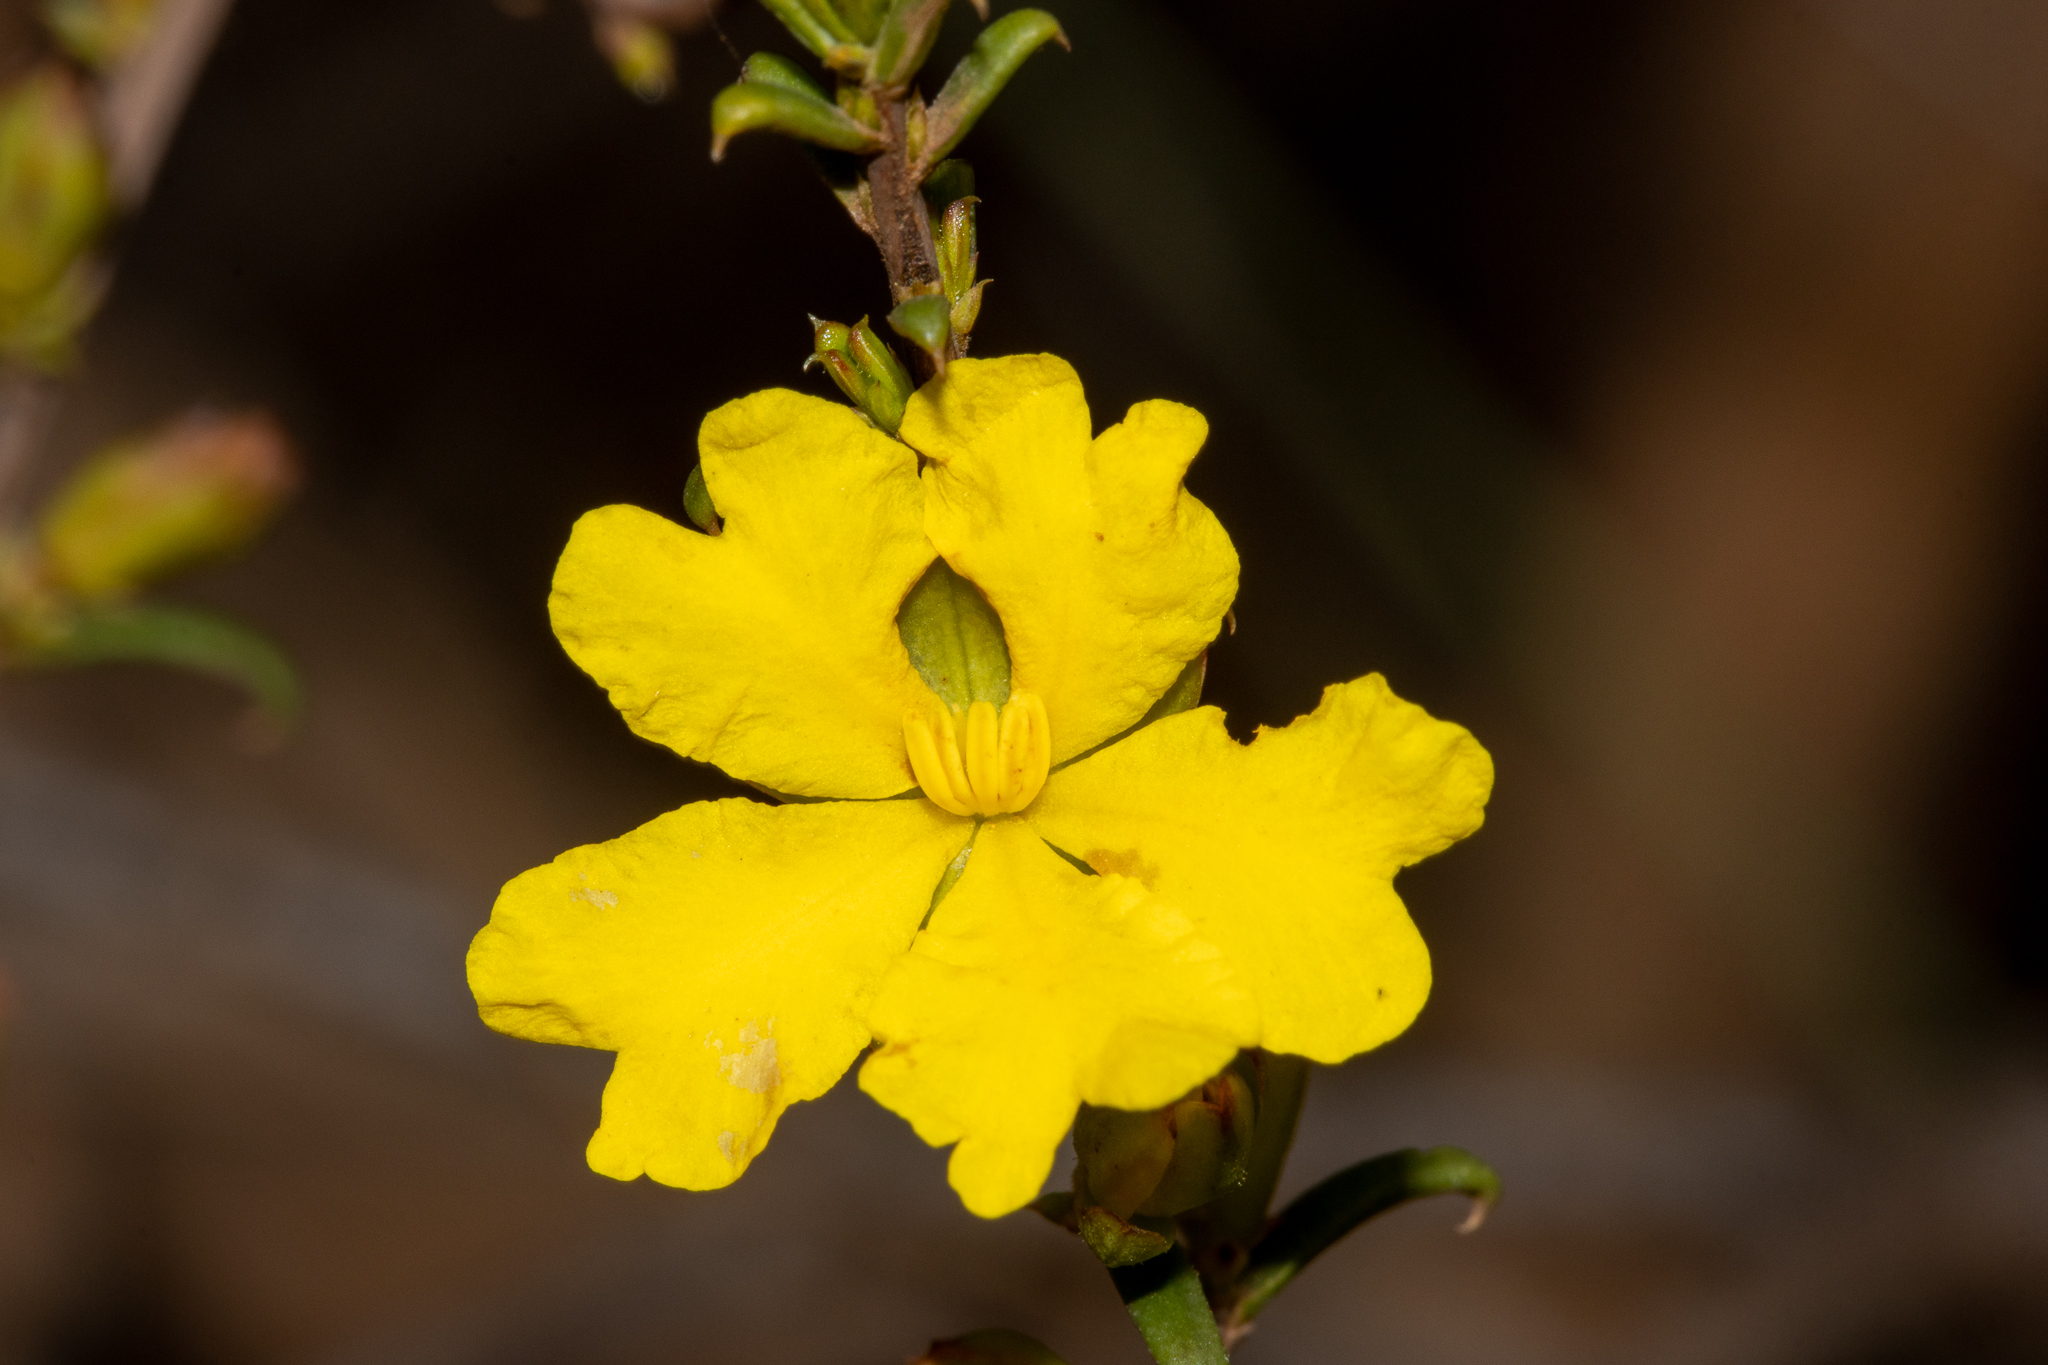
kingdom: Plantae
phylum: Tracheophyta
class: Magnoliopsida
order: Dilleniales
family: Dilleniaceae
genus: Hibbertia
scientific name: Hibbertia ancistrophylla
